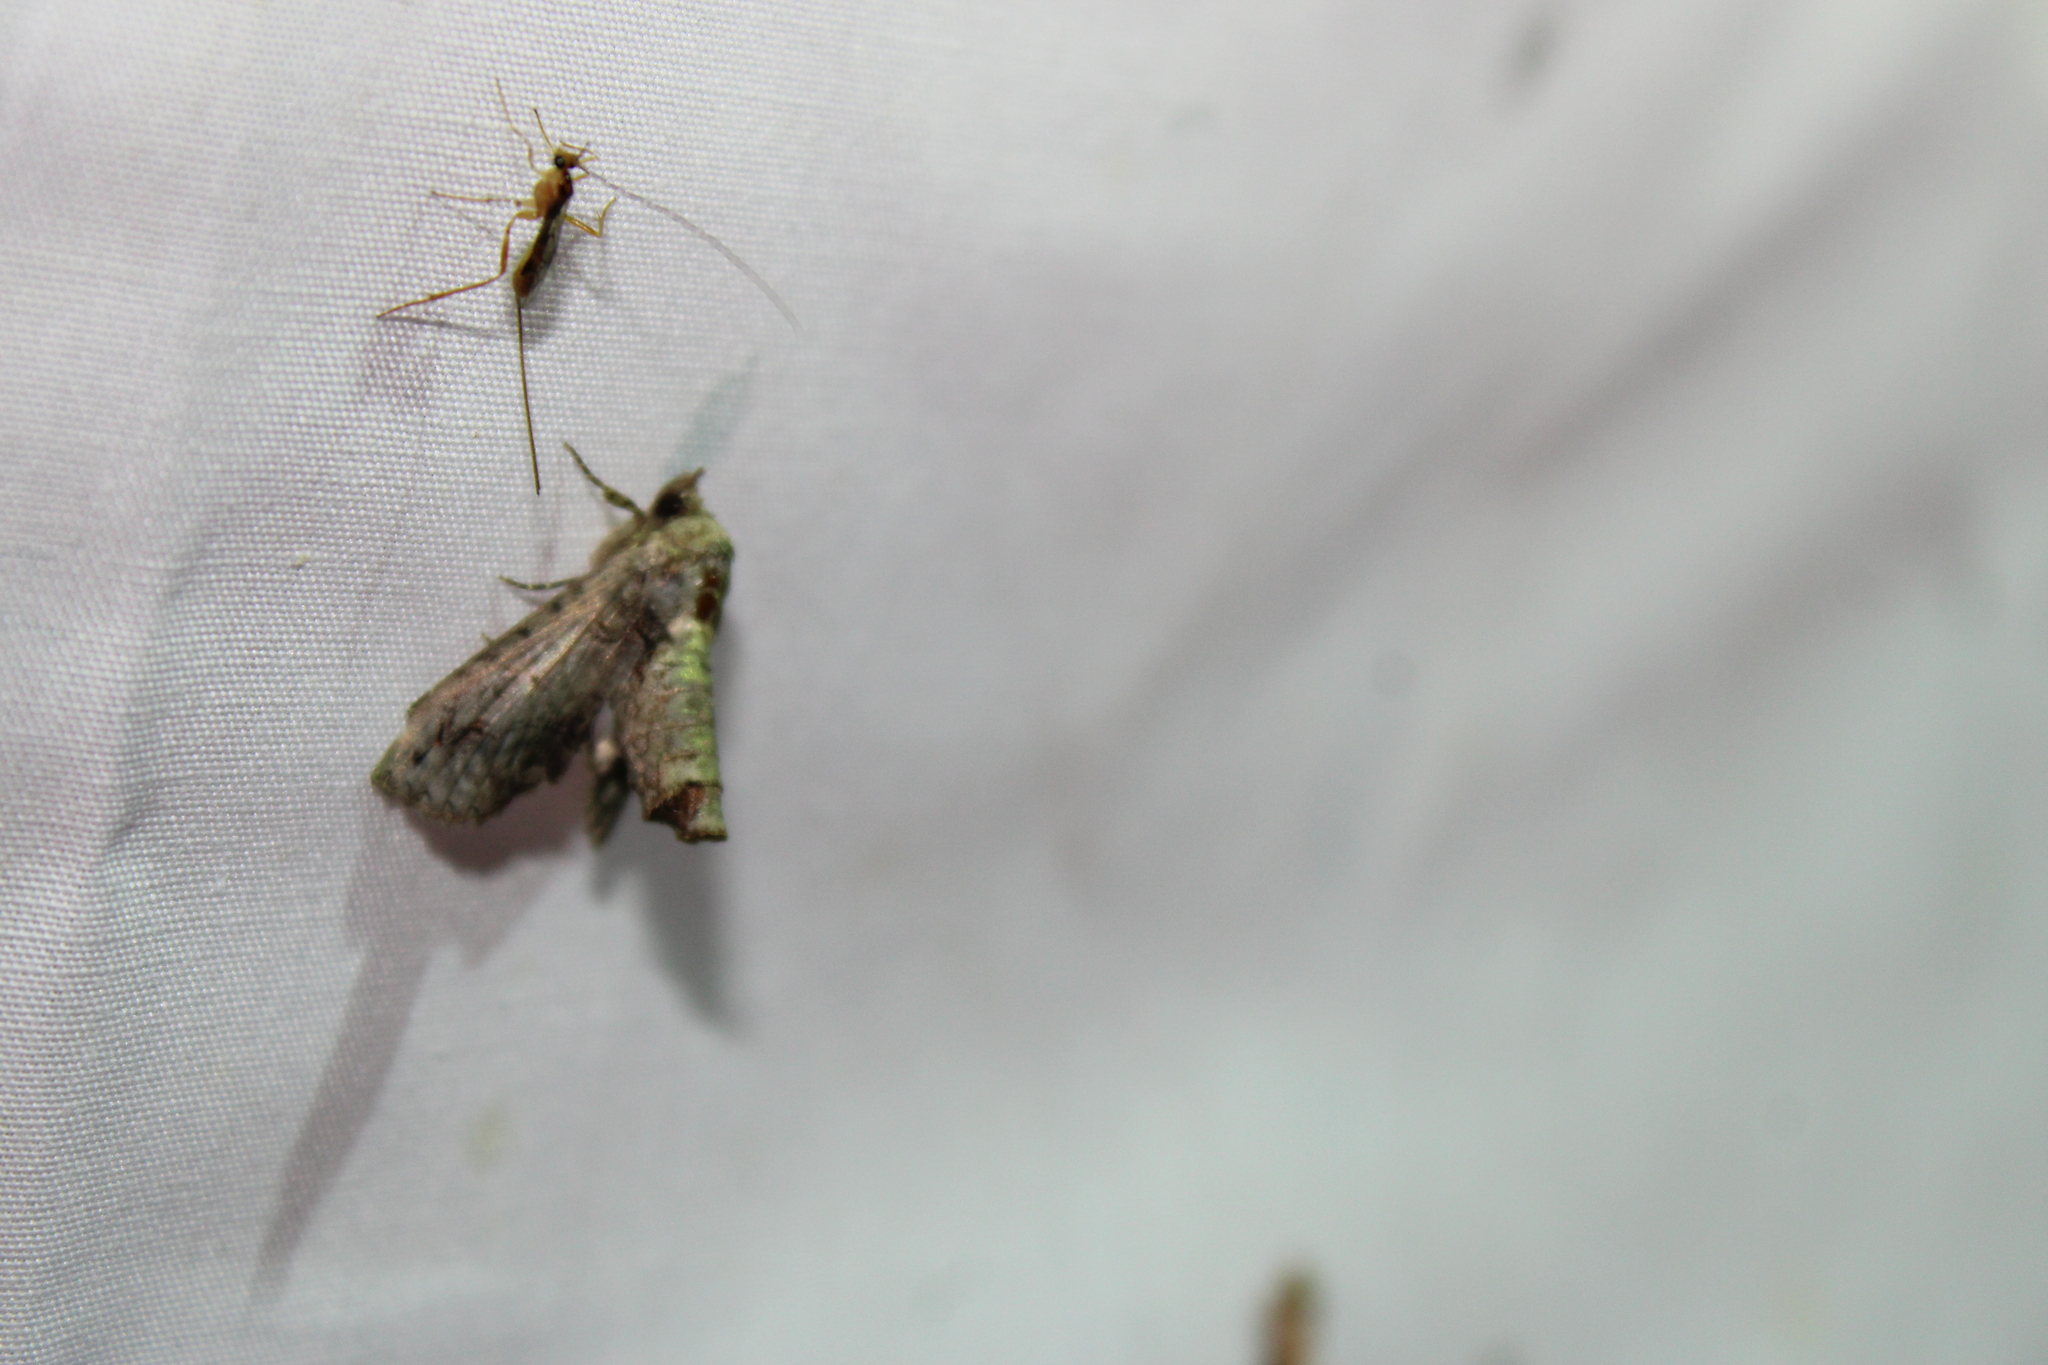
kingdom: Animalia
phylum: Arthropoda
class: Insecta
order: Lepidoptera
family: Euteliidae
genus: Paectes
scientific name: Paectes abrostoloides
